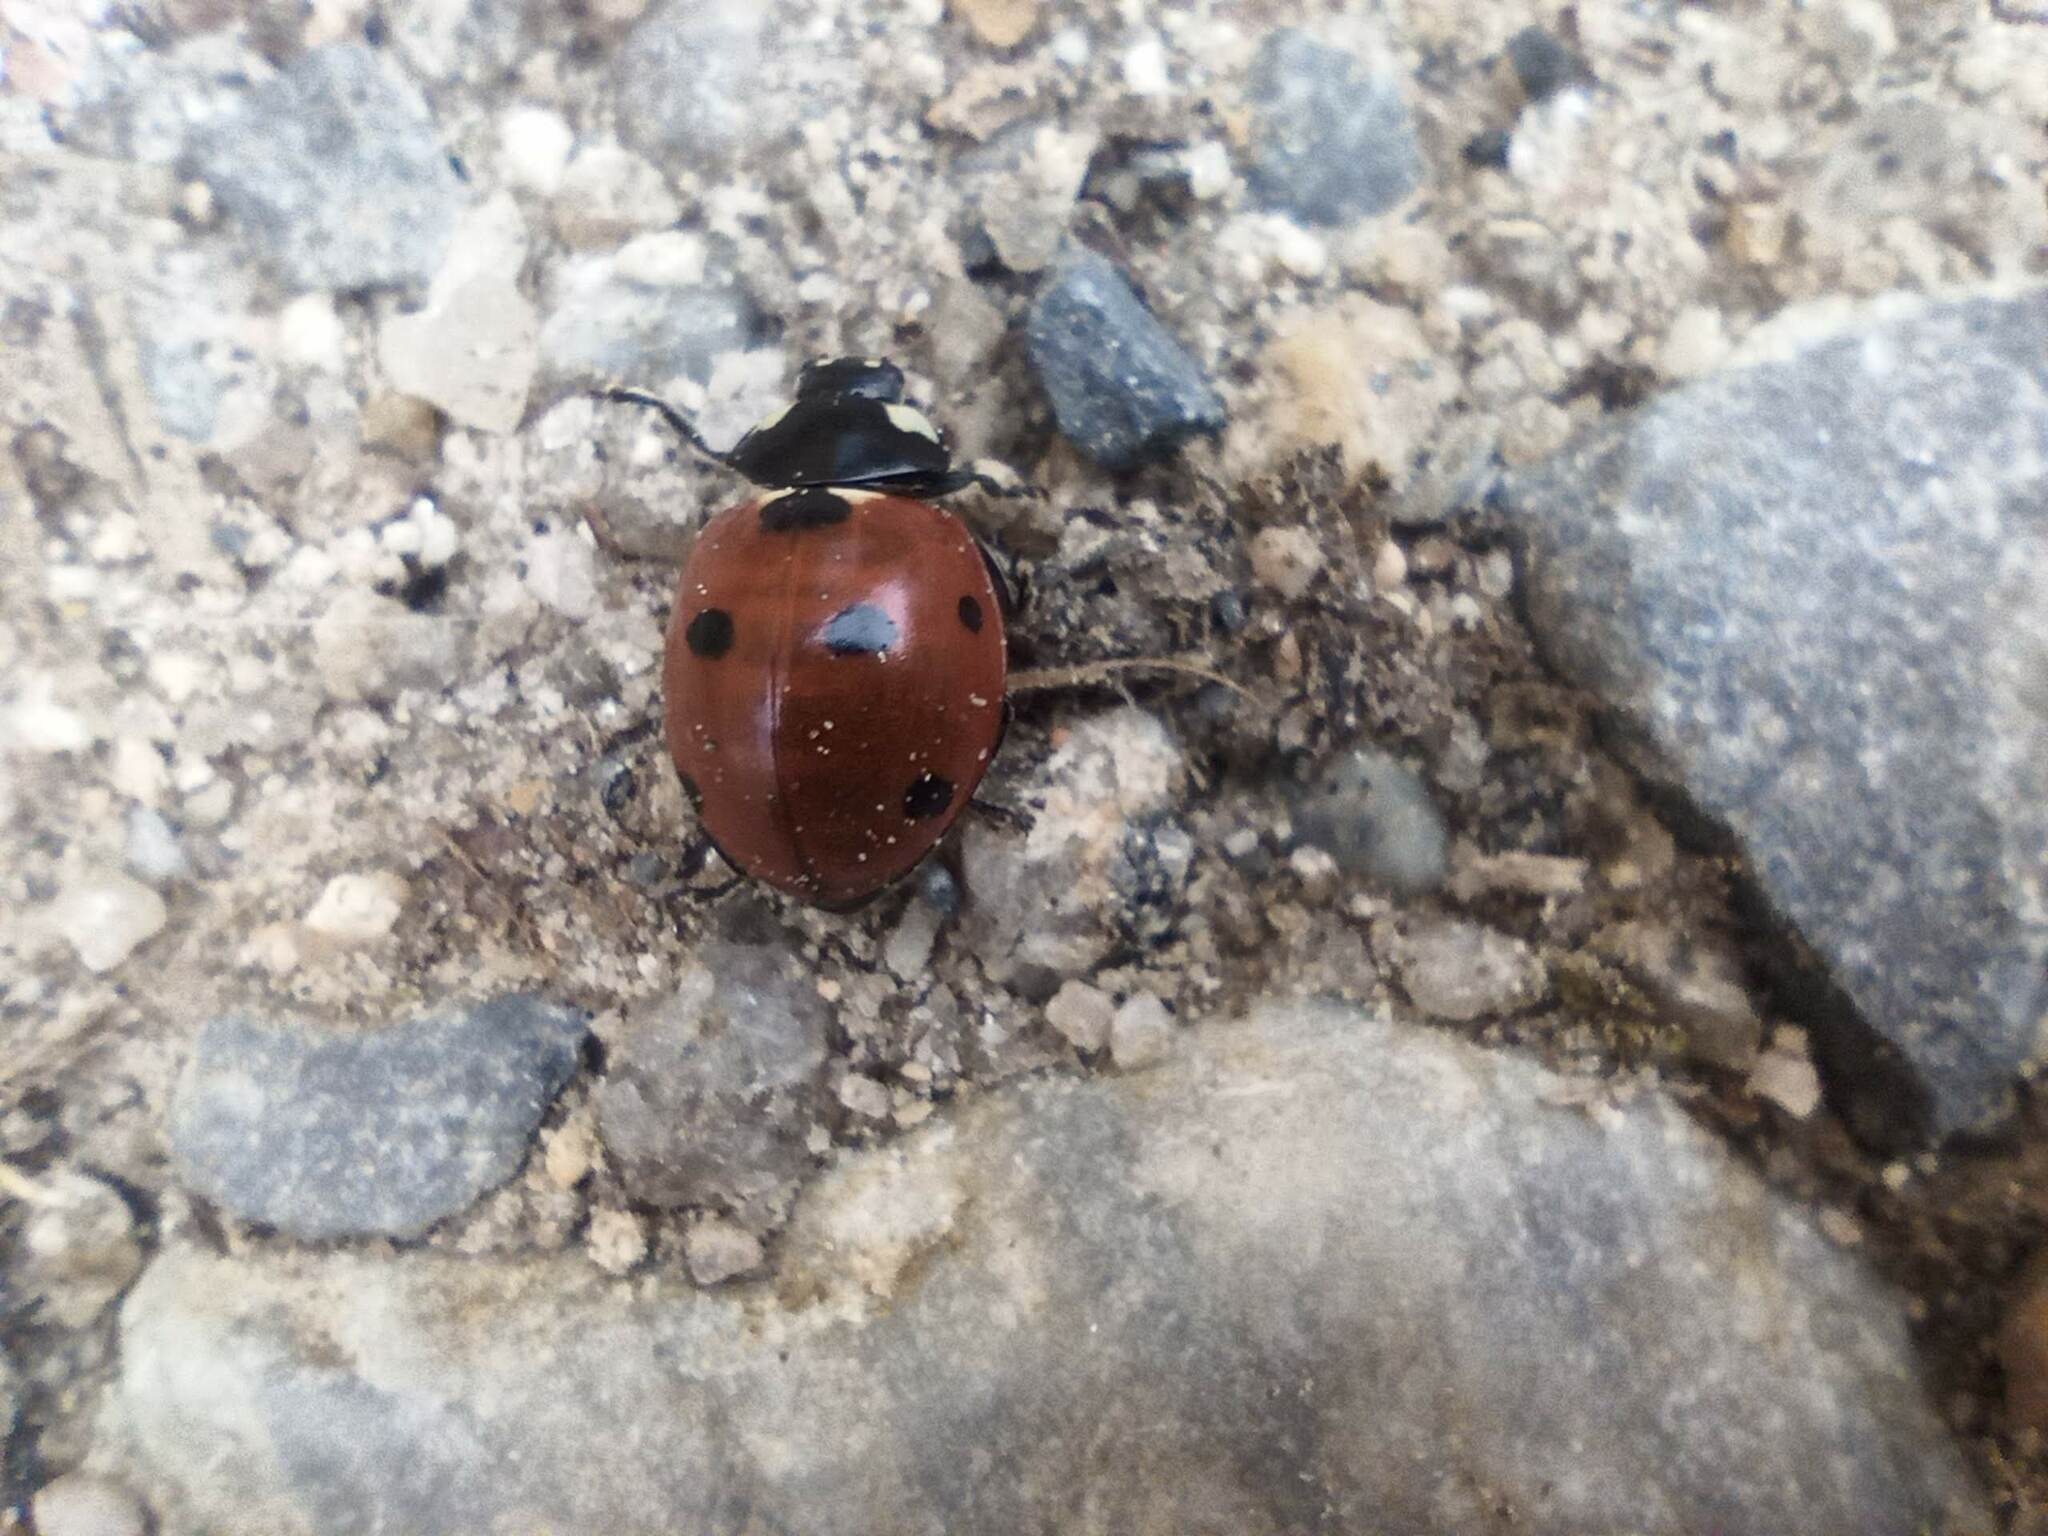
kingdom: Animalia
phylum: Arthropoda
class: Insecta
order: Coleoptera
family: Coccinellidae
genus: Coccinella
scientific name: Coccinella septempunctata
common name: Sevenspotted lady beetle
